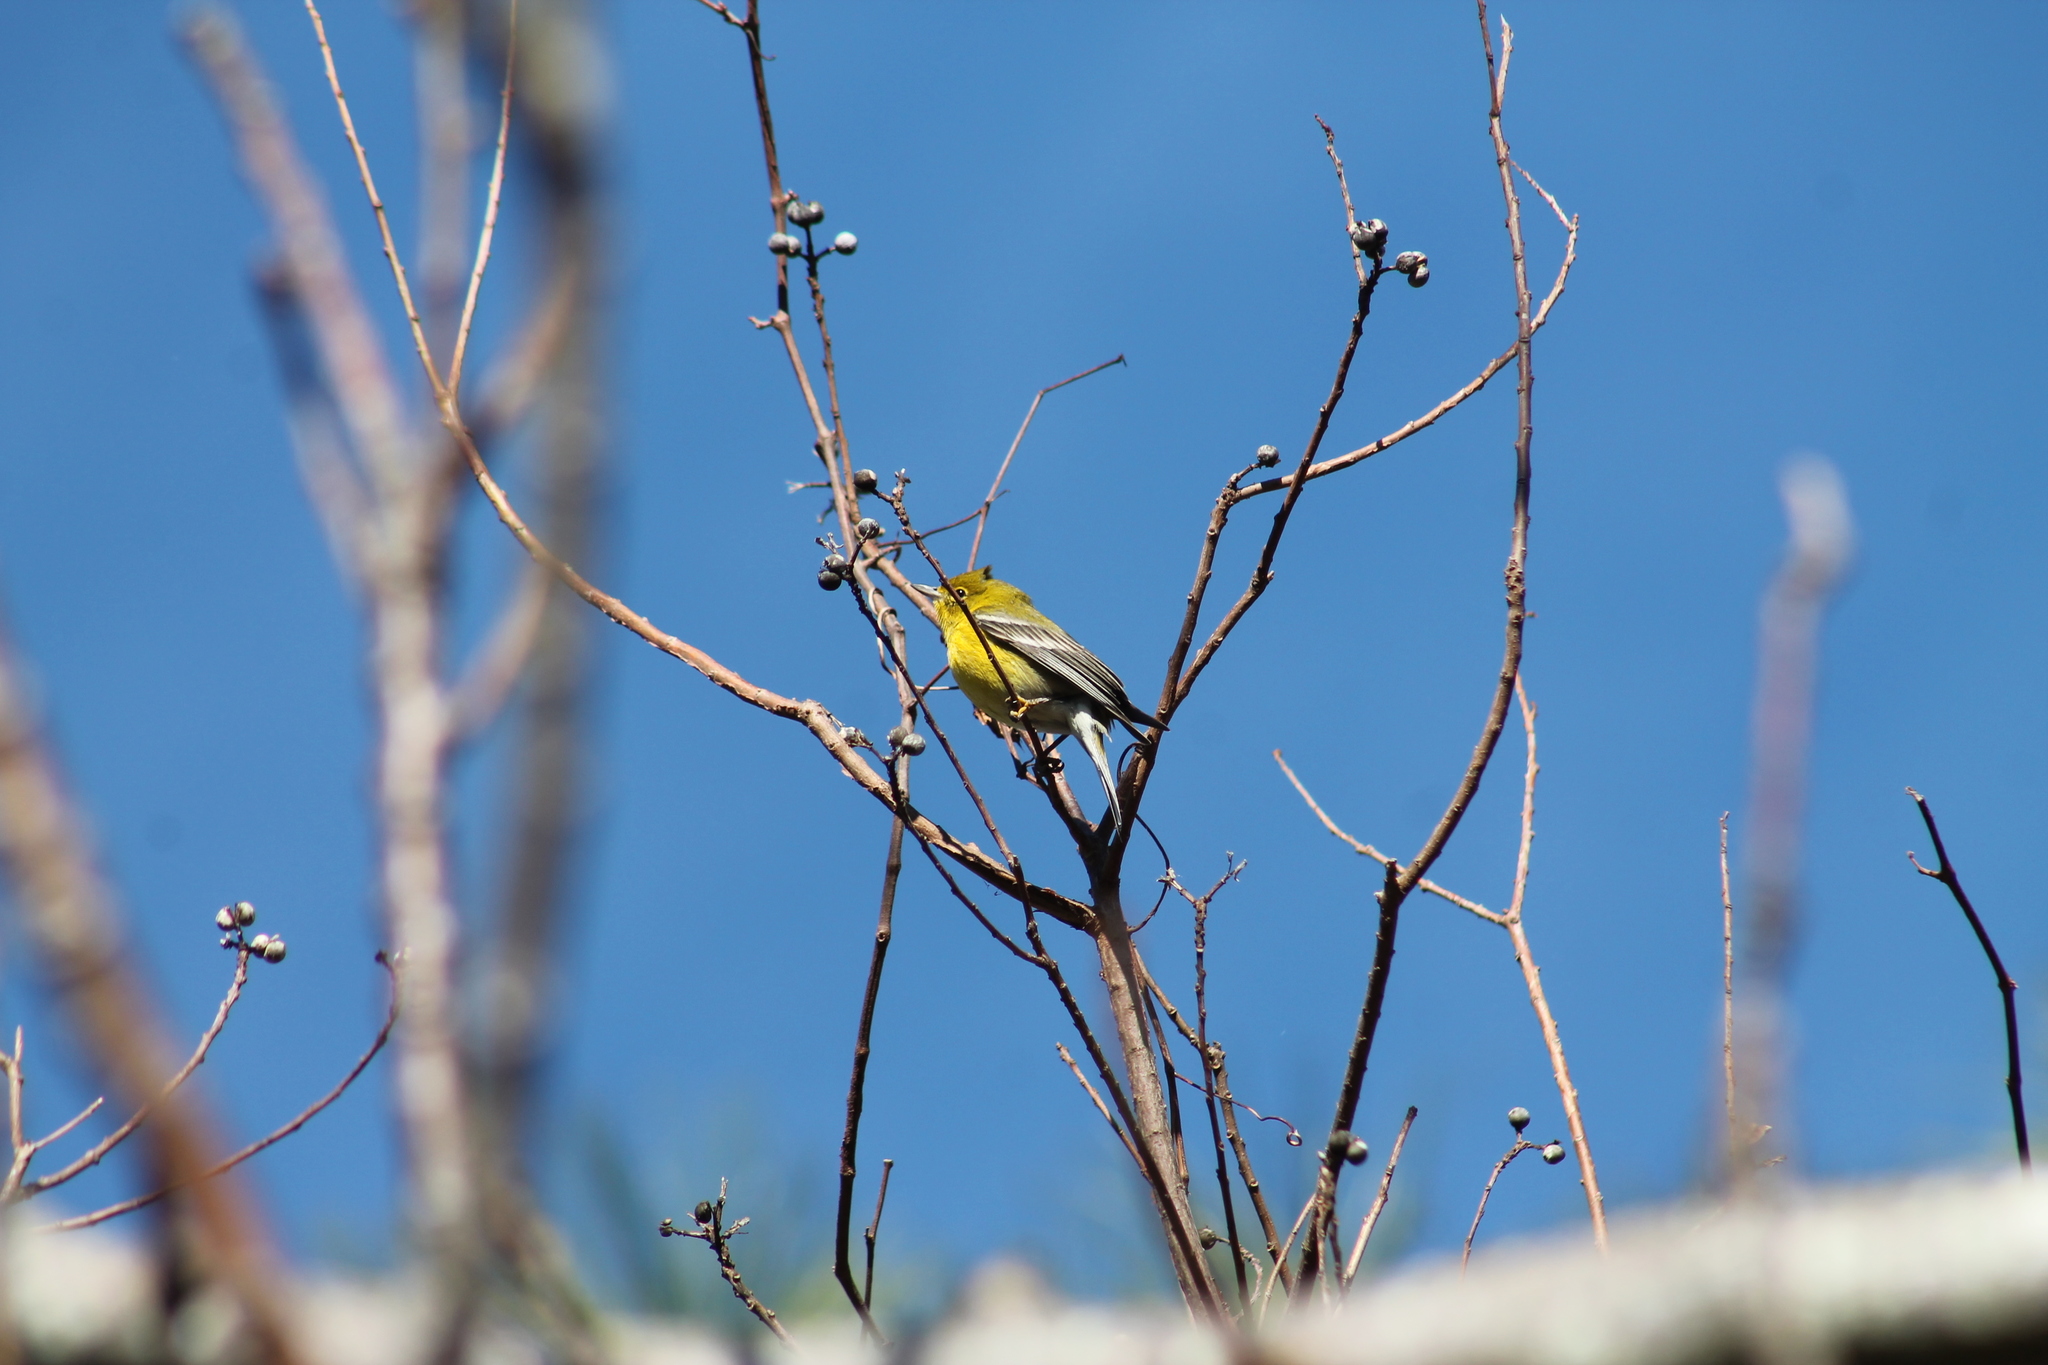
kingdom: Animalia
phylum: Chordata
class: Aves
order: Passeriformes
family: Parulidae
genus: Setophaga
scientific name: Setophaga pinus
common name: Pine warbler
